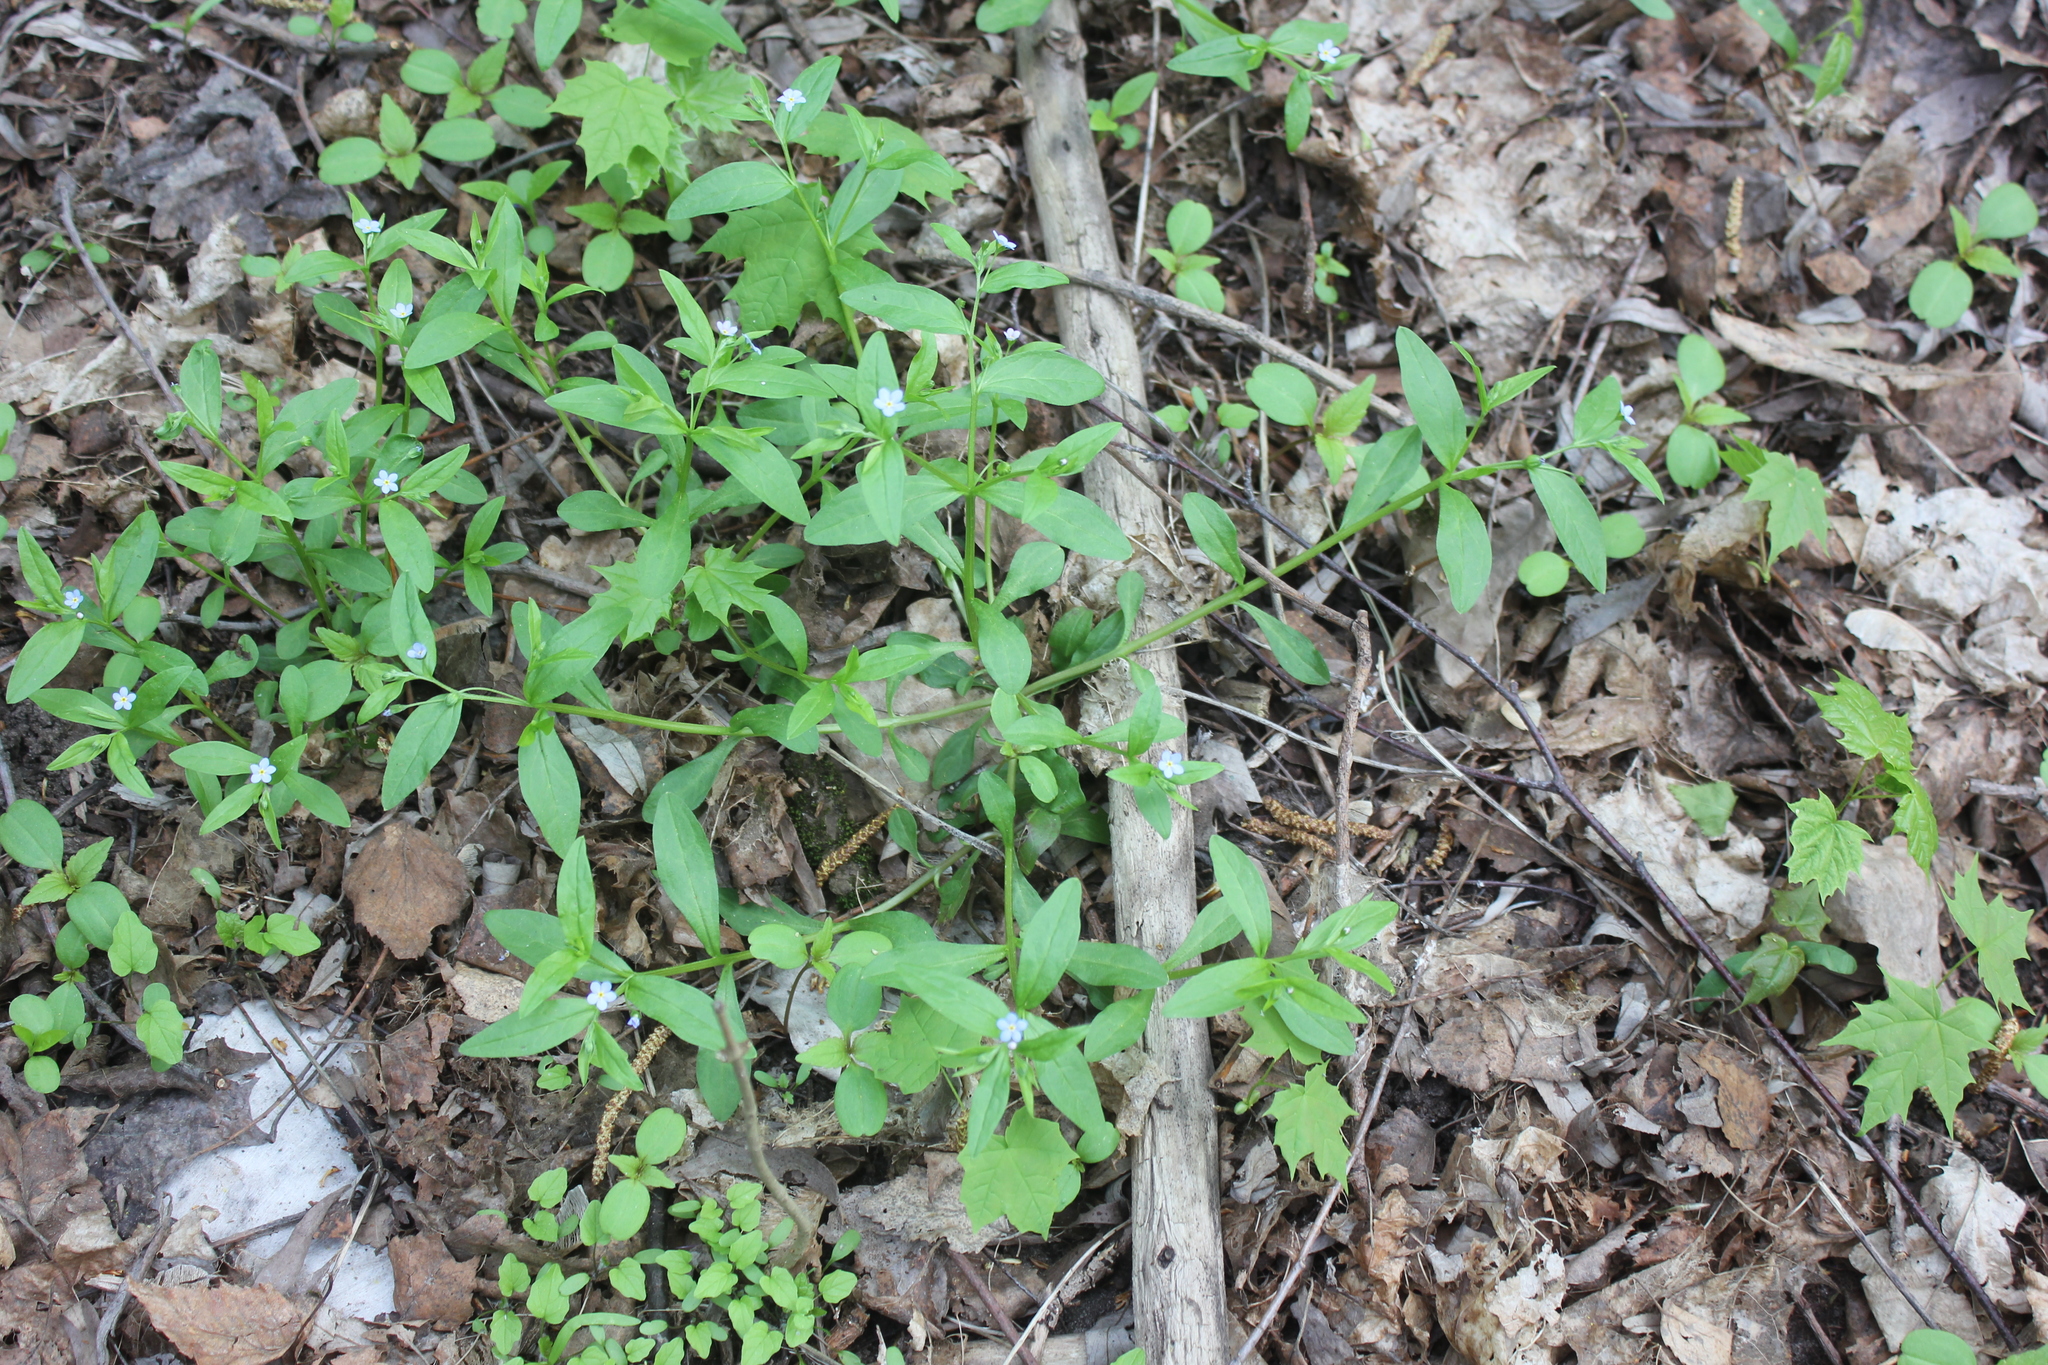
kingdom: Plantae
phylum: Tracheophyta
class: Magnoliopsida
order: Boraginales
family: Boraginaceae
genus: Memoremea
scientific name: Memoremea scorpioides
